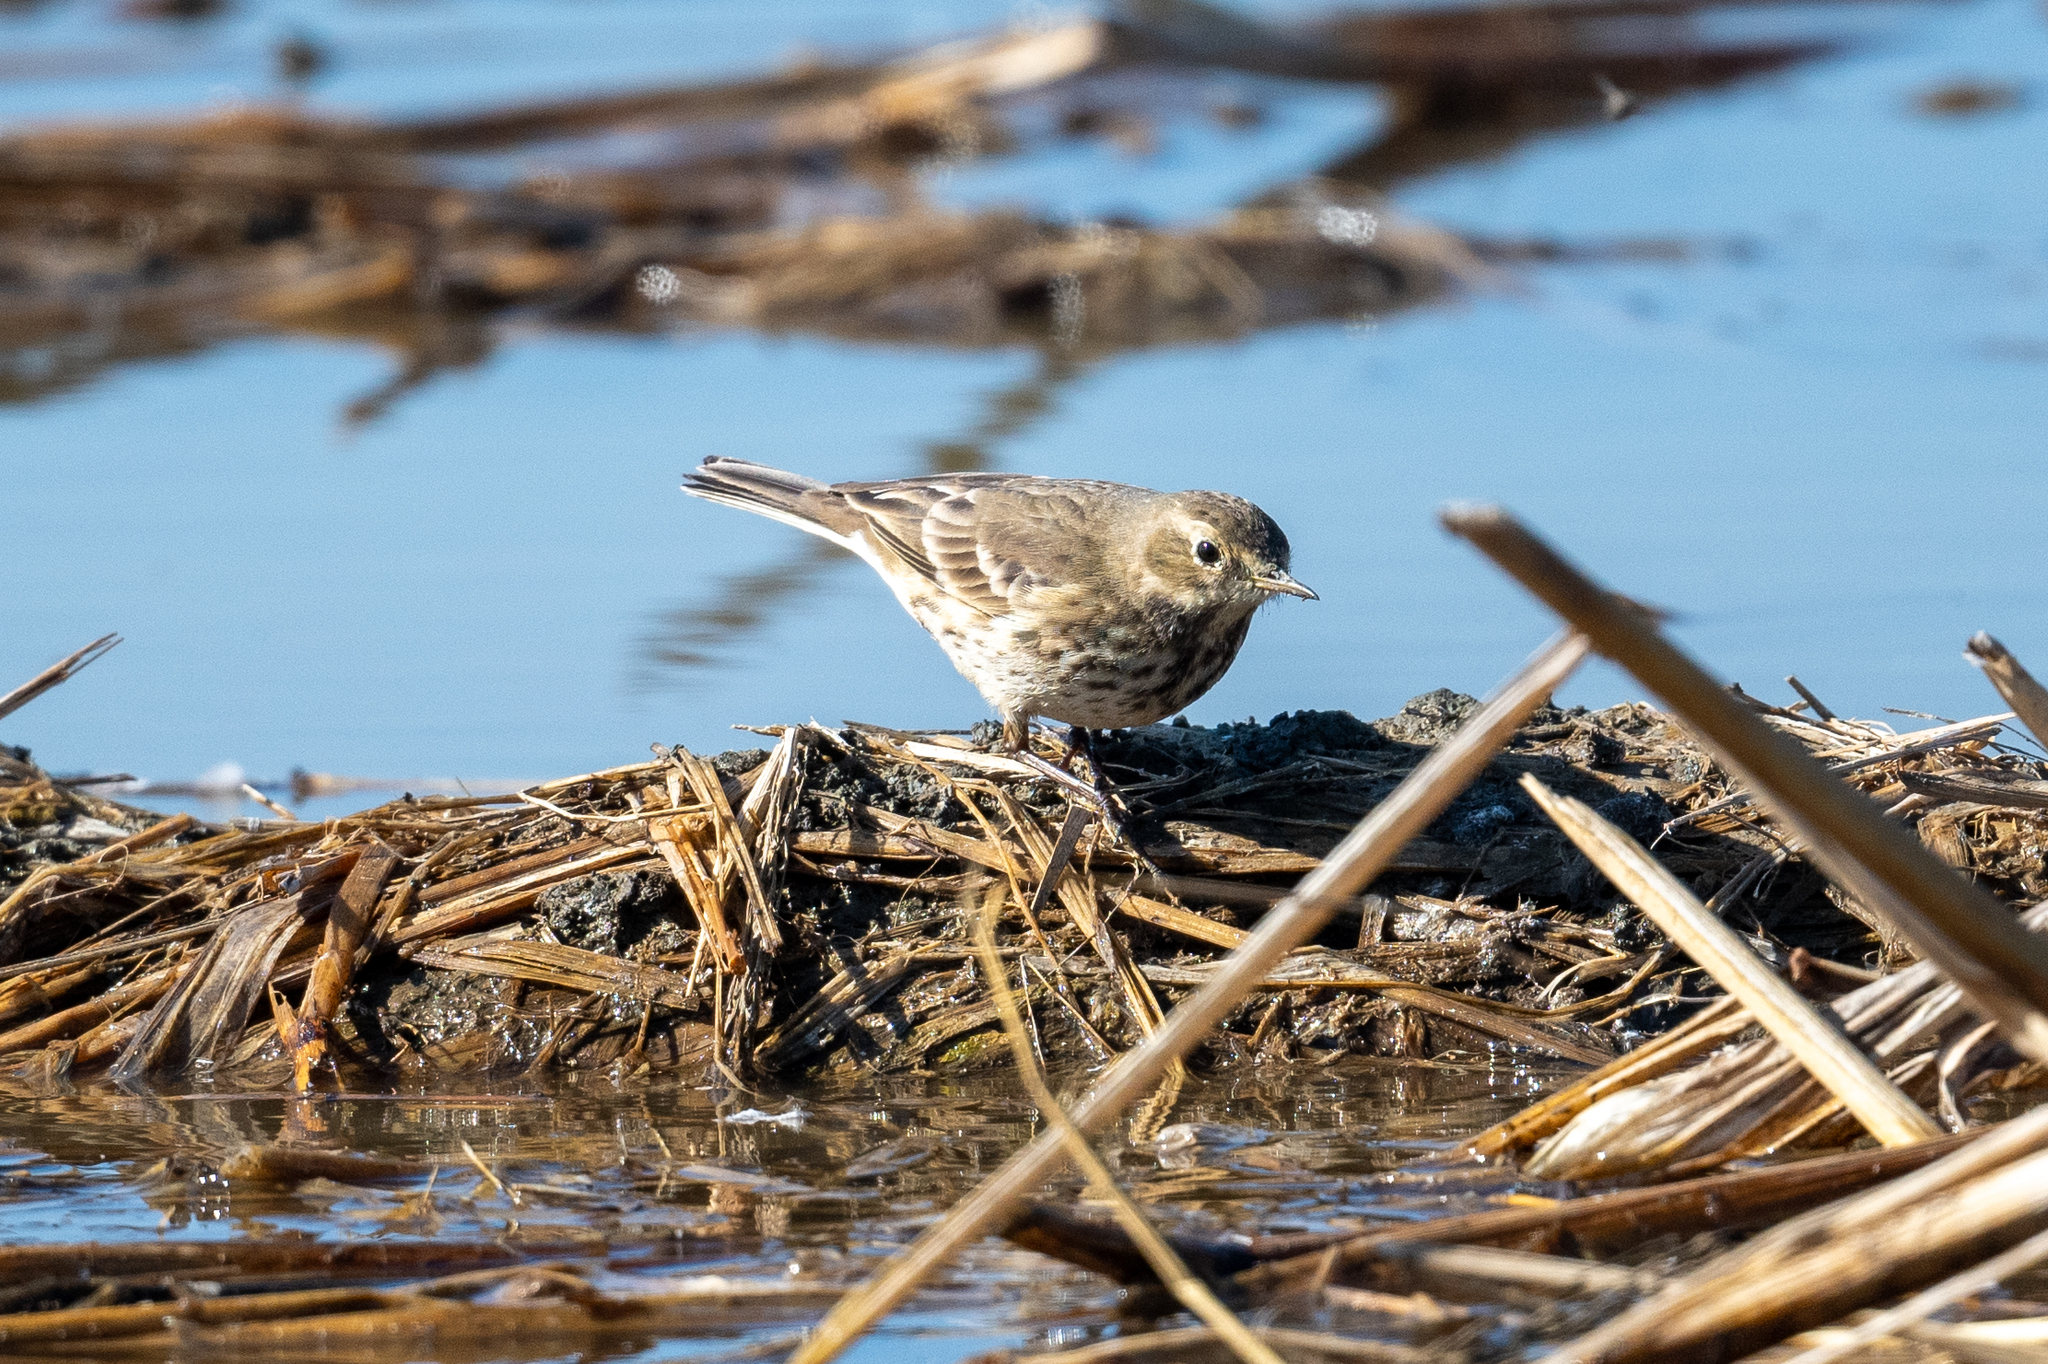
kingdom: Animalia
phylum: Chordata
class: Aves
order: Passeriformes
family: Motacillidae
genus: Anthus
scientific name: Anthus rubescens
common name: Buff-bellied pipit
